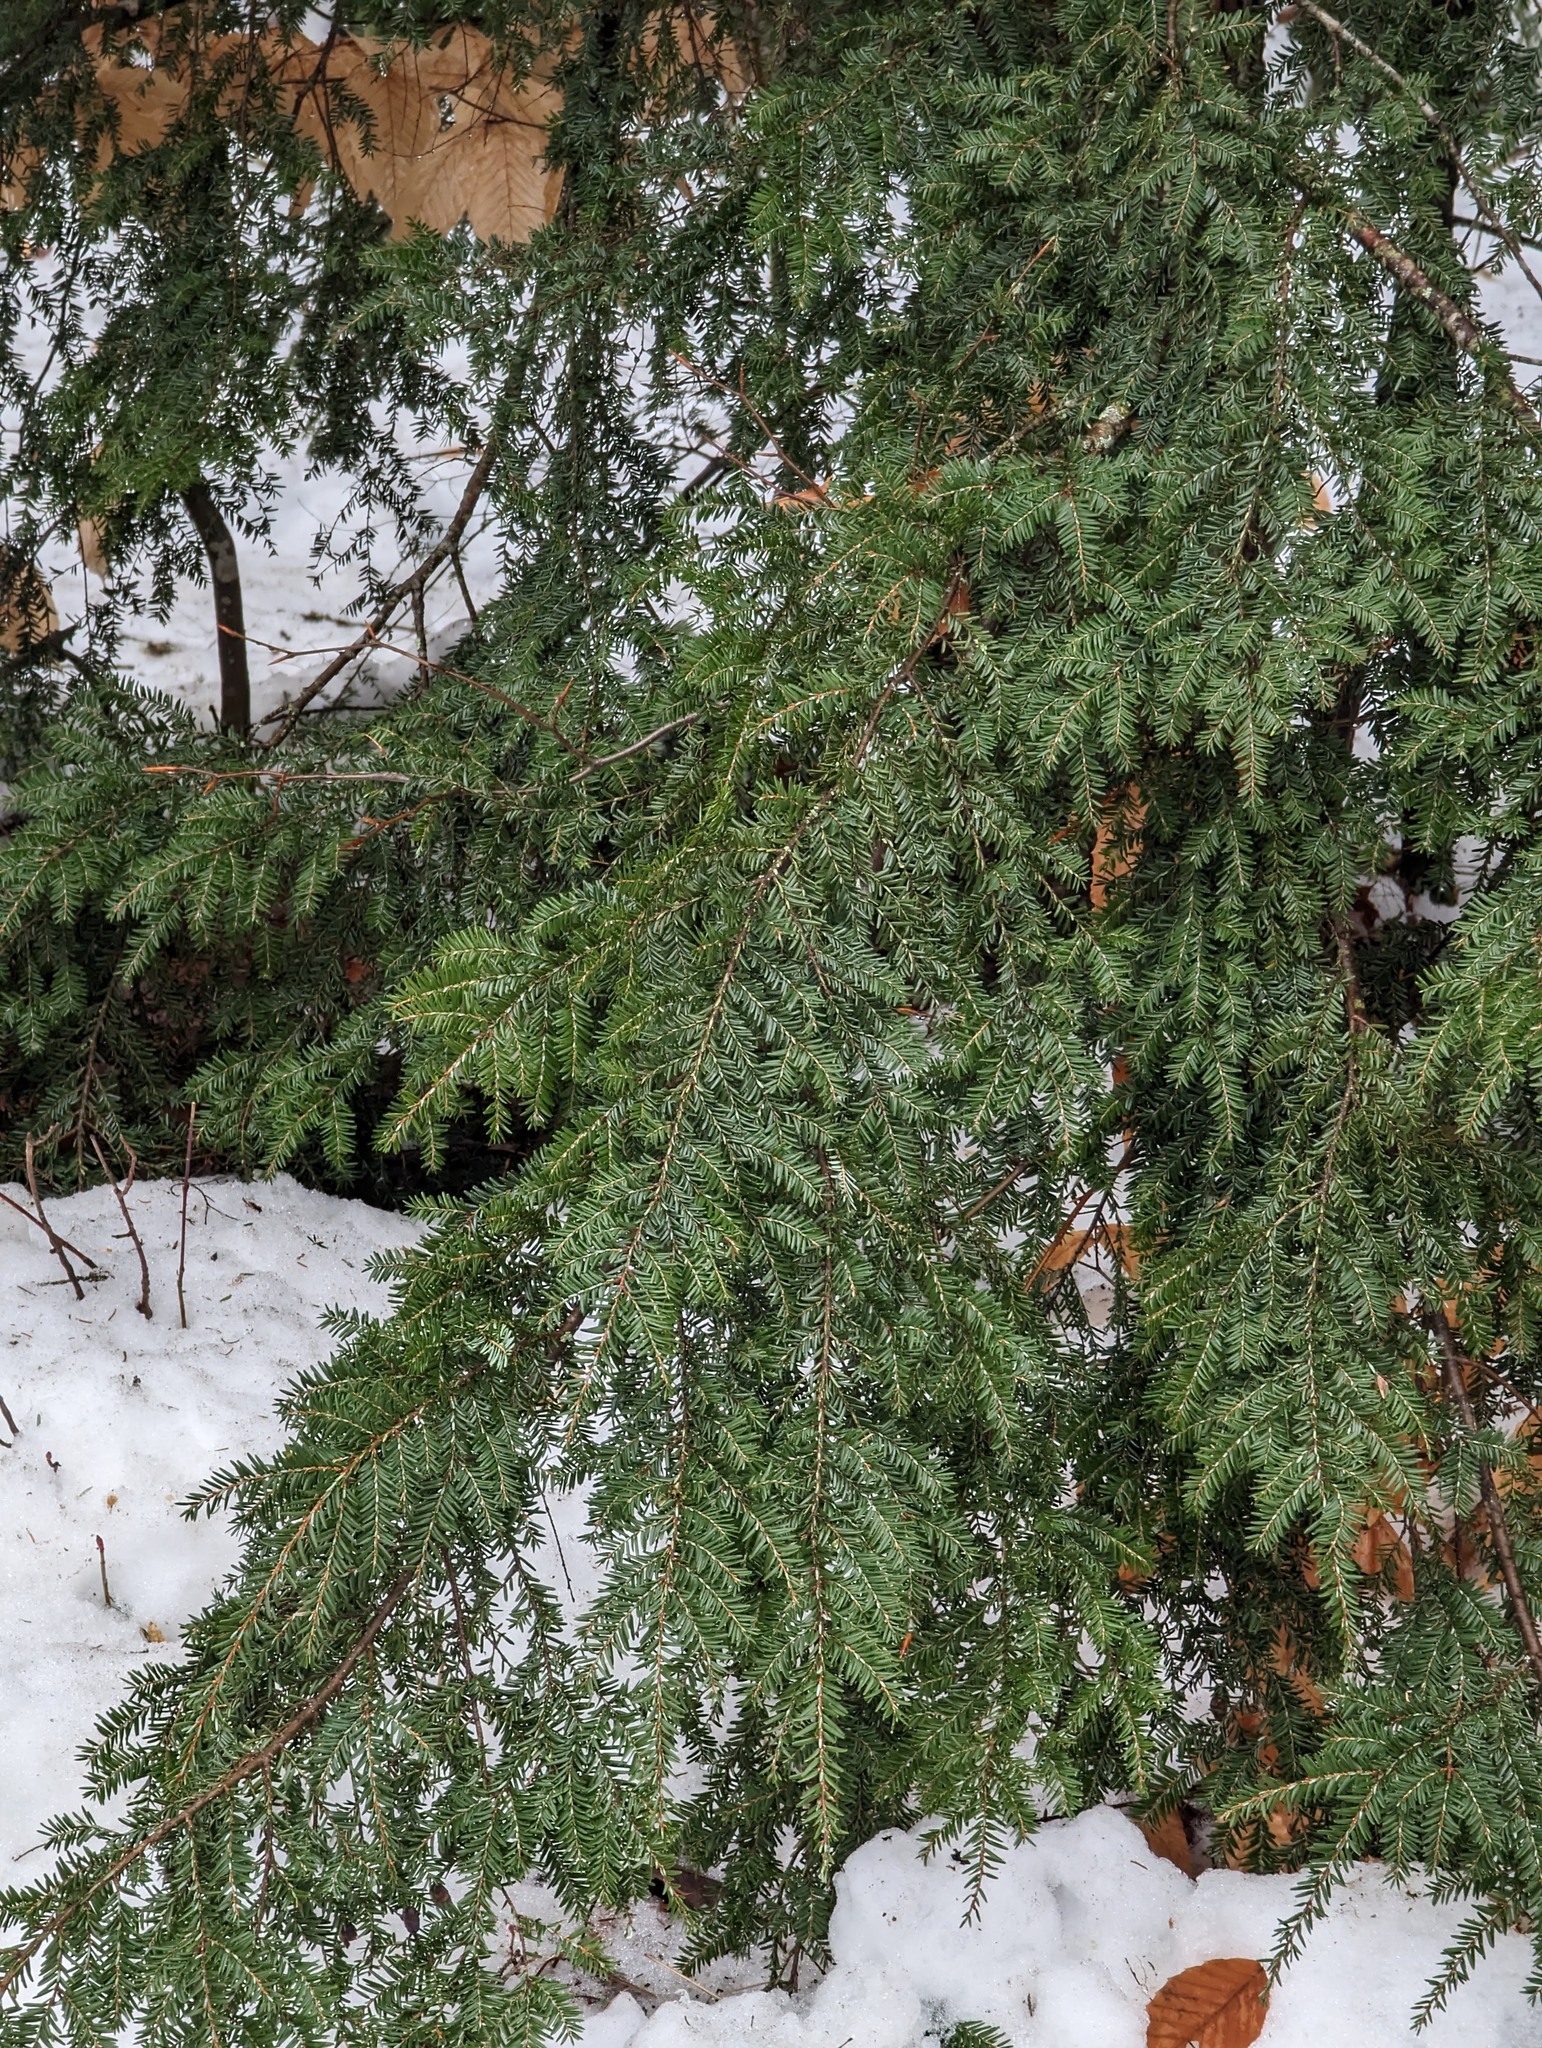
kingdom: Plantae
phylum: Tracheophyta
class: Pinopsida
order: Pinales
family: Pinaceae
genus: Tsuga
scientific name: Tsuga canadensis
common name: Eastern hemlock
